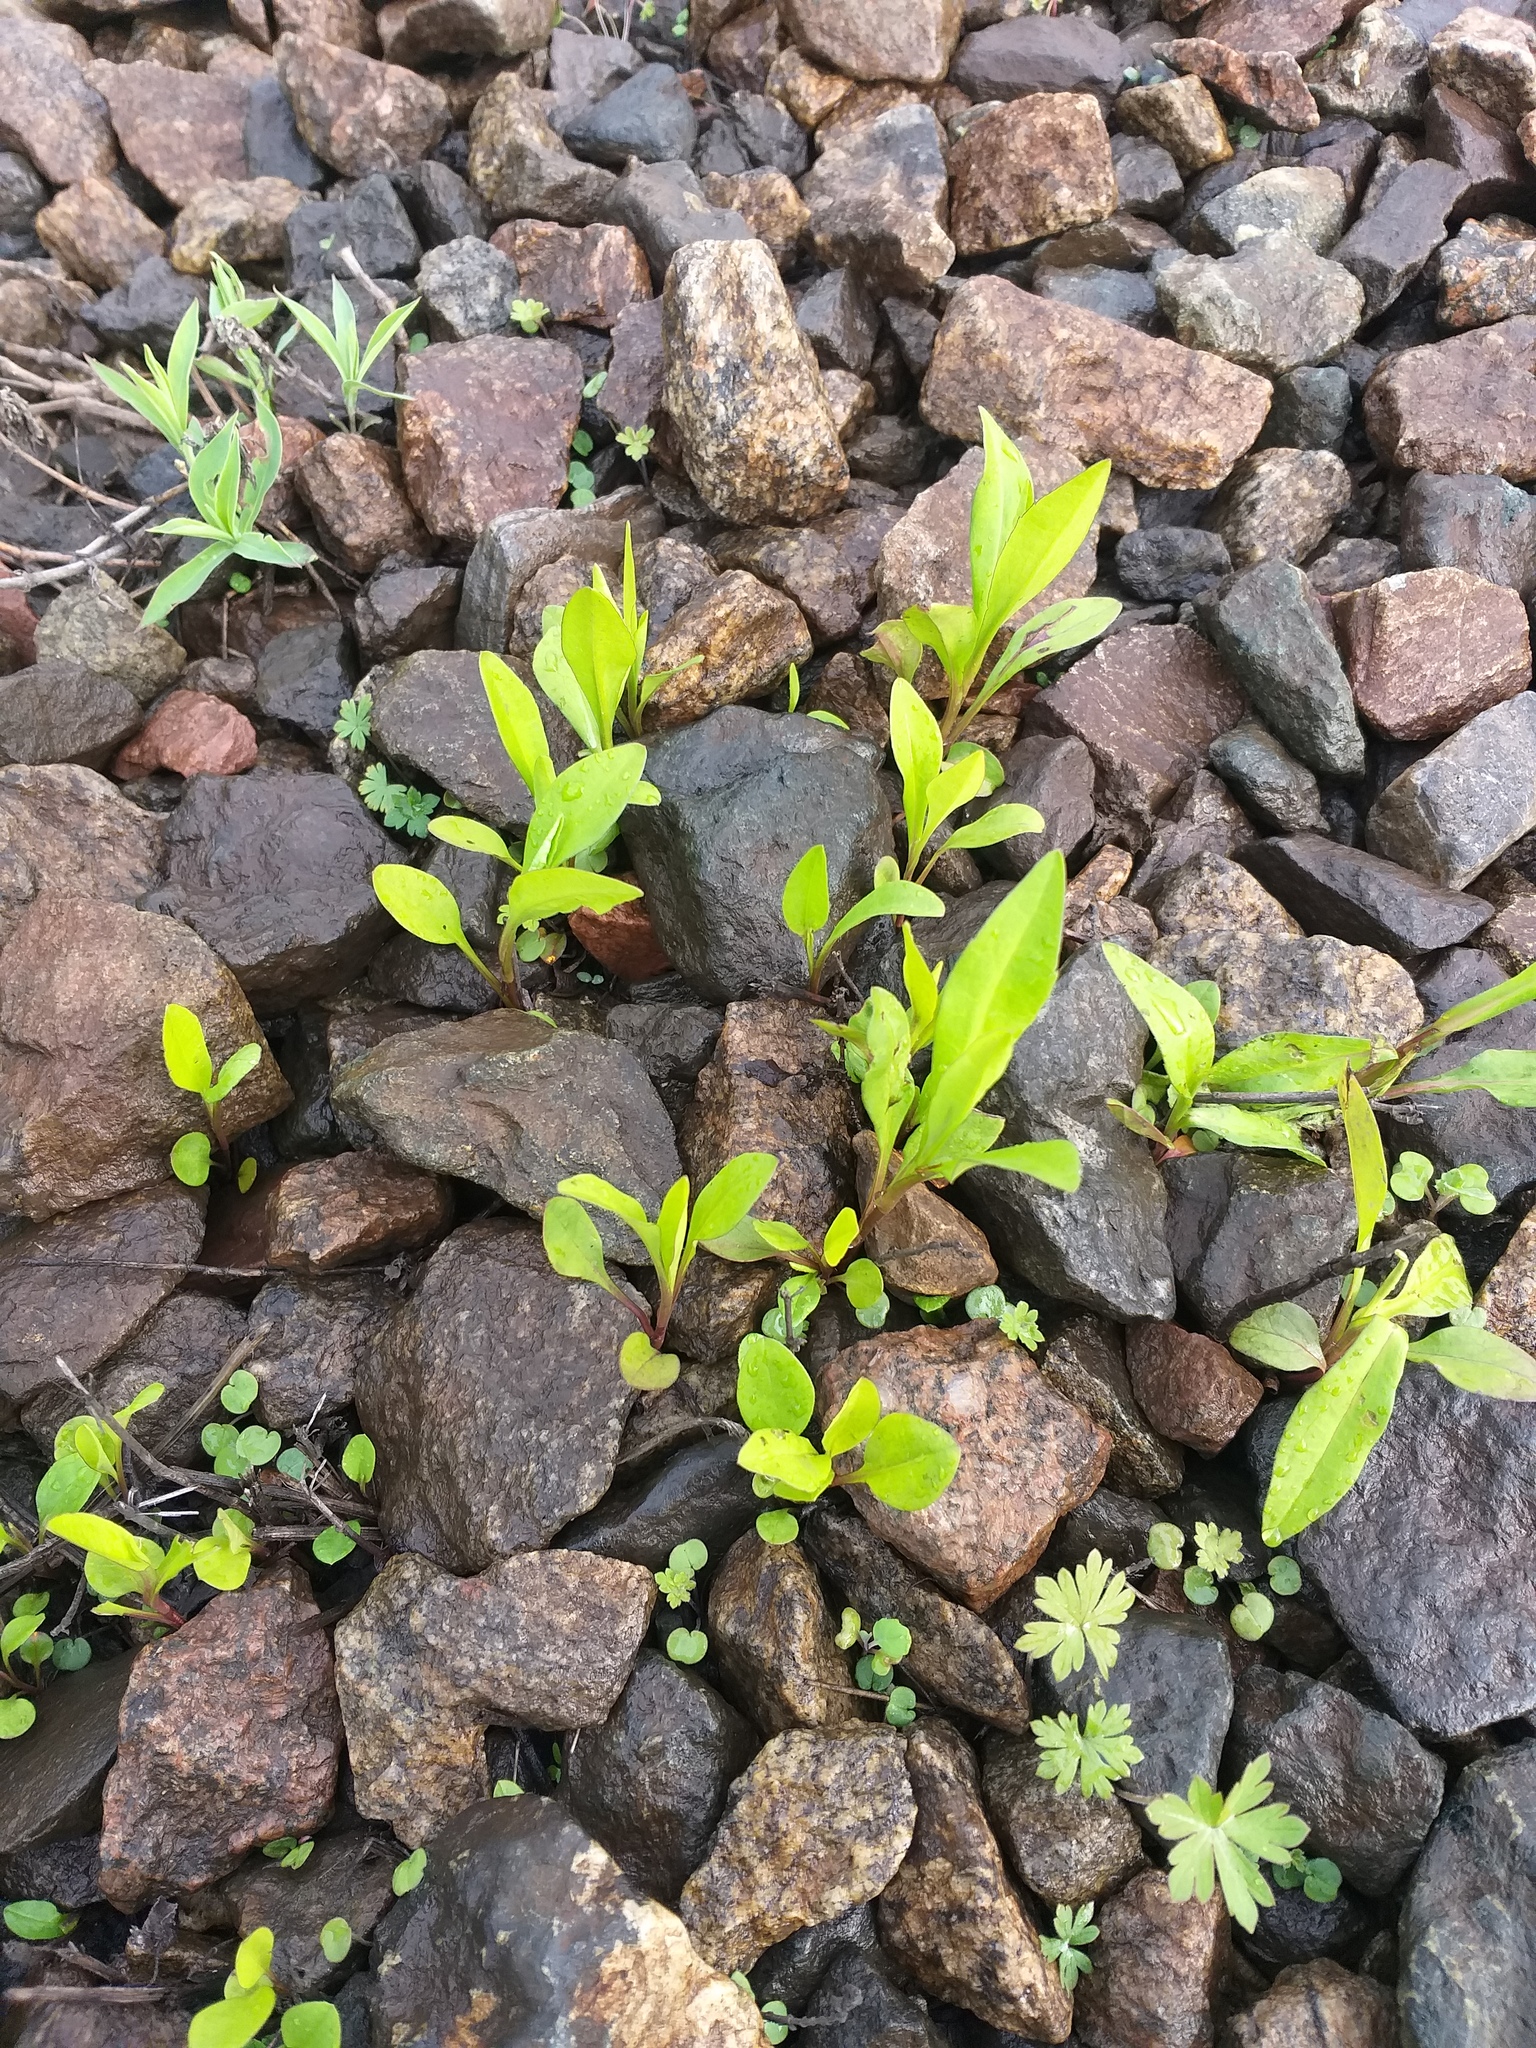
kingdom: Plantae
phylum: Tracheophyta
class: Magnoliopsida
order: Asterales
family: Asteraceae
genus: Symphyotrichum
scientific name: Symphyotrichum
